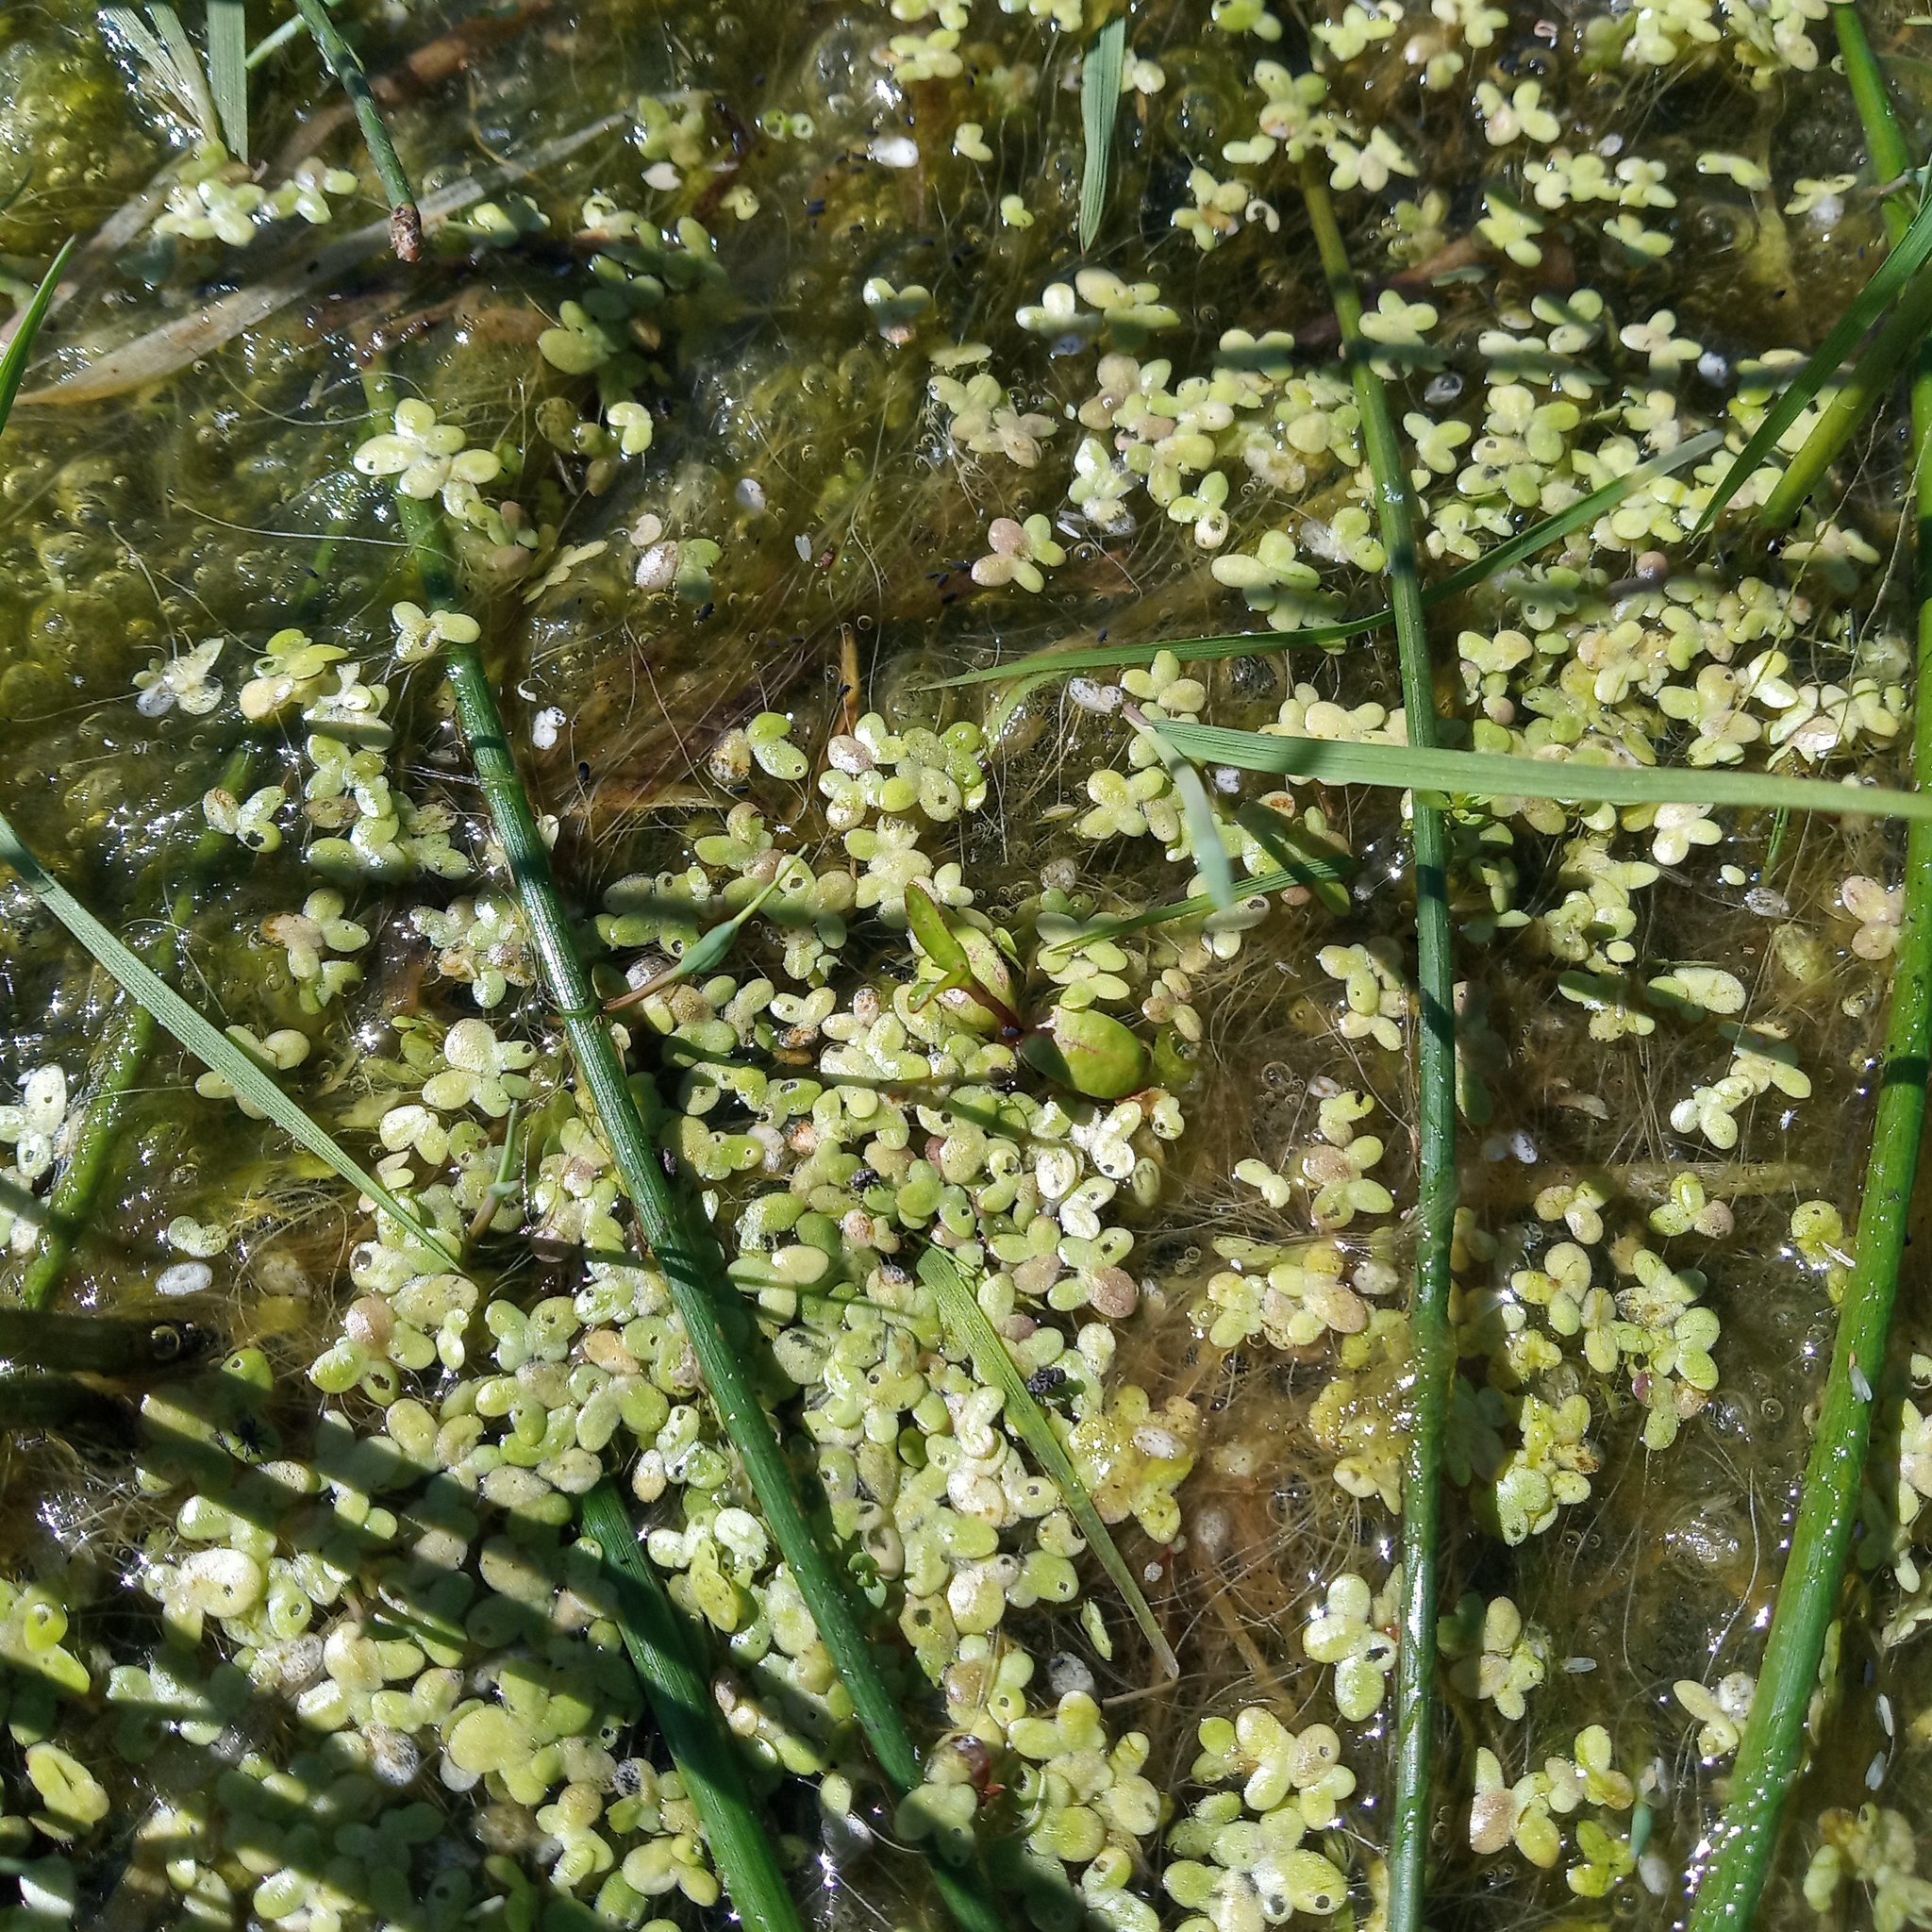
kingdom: Plantae
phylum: Tracheophyta
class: Liliopsida
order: Alismatales
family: Araceae
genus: Lemna
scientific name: Lemna minor
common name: Common duckweed
